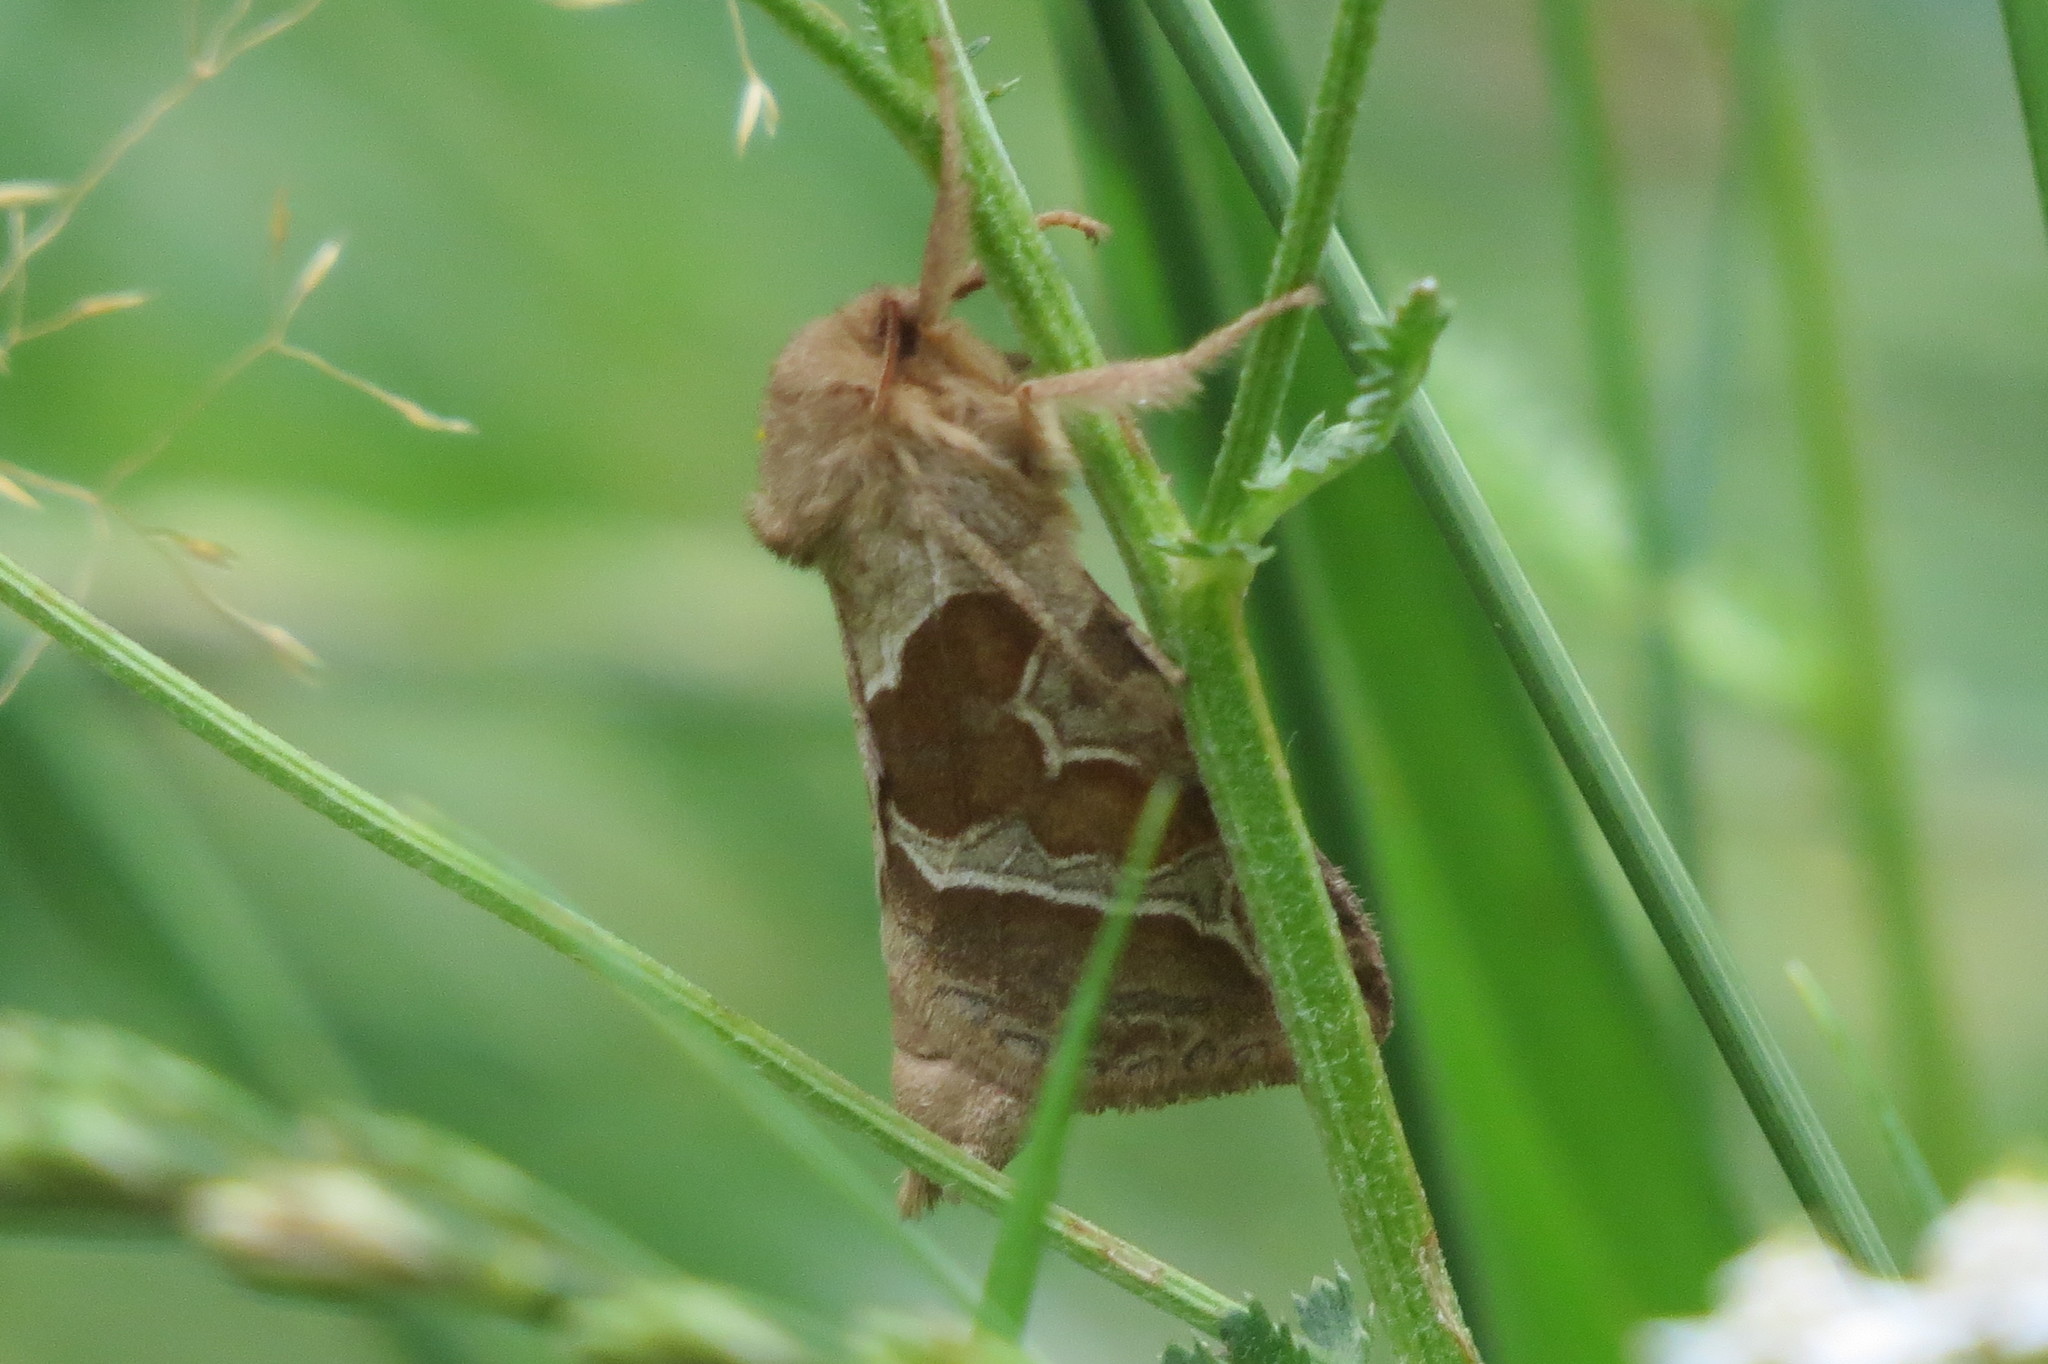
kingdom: Animalia
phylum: Arthropoda
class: Insecta
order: Lepidoptera
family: Hepialidae
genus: Triodia
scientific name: Triodia sylvina
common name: Orange swift
